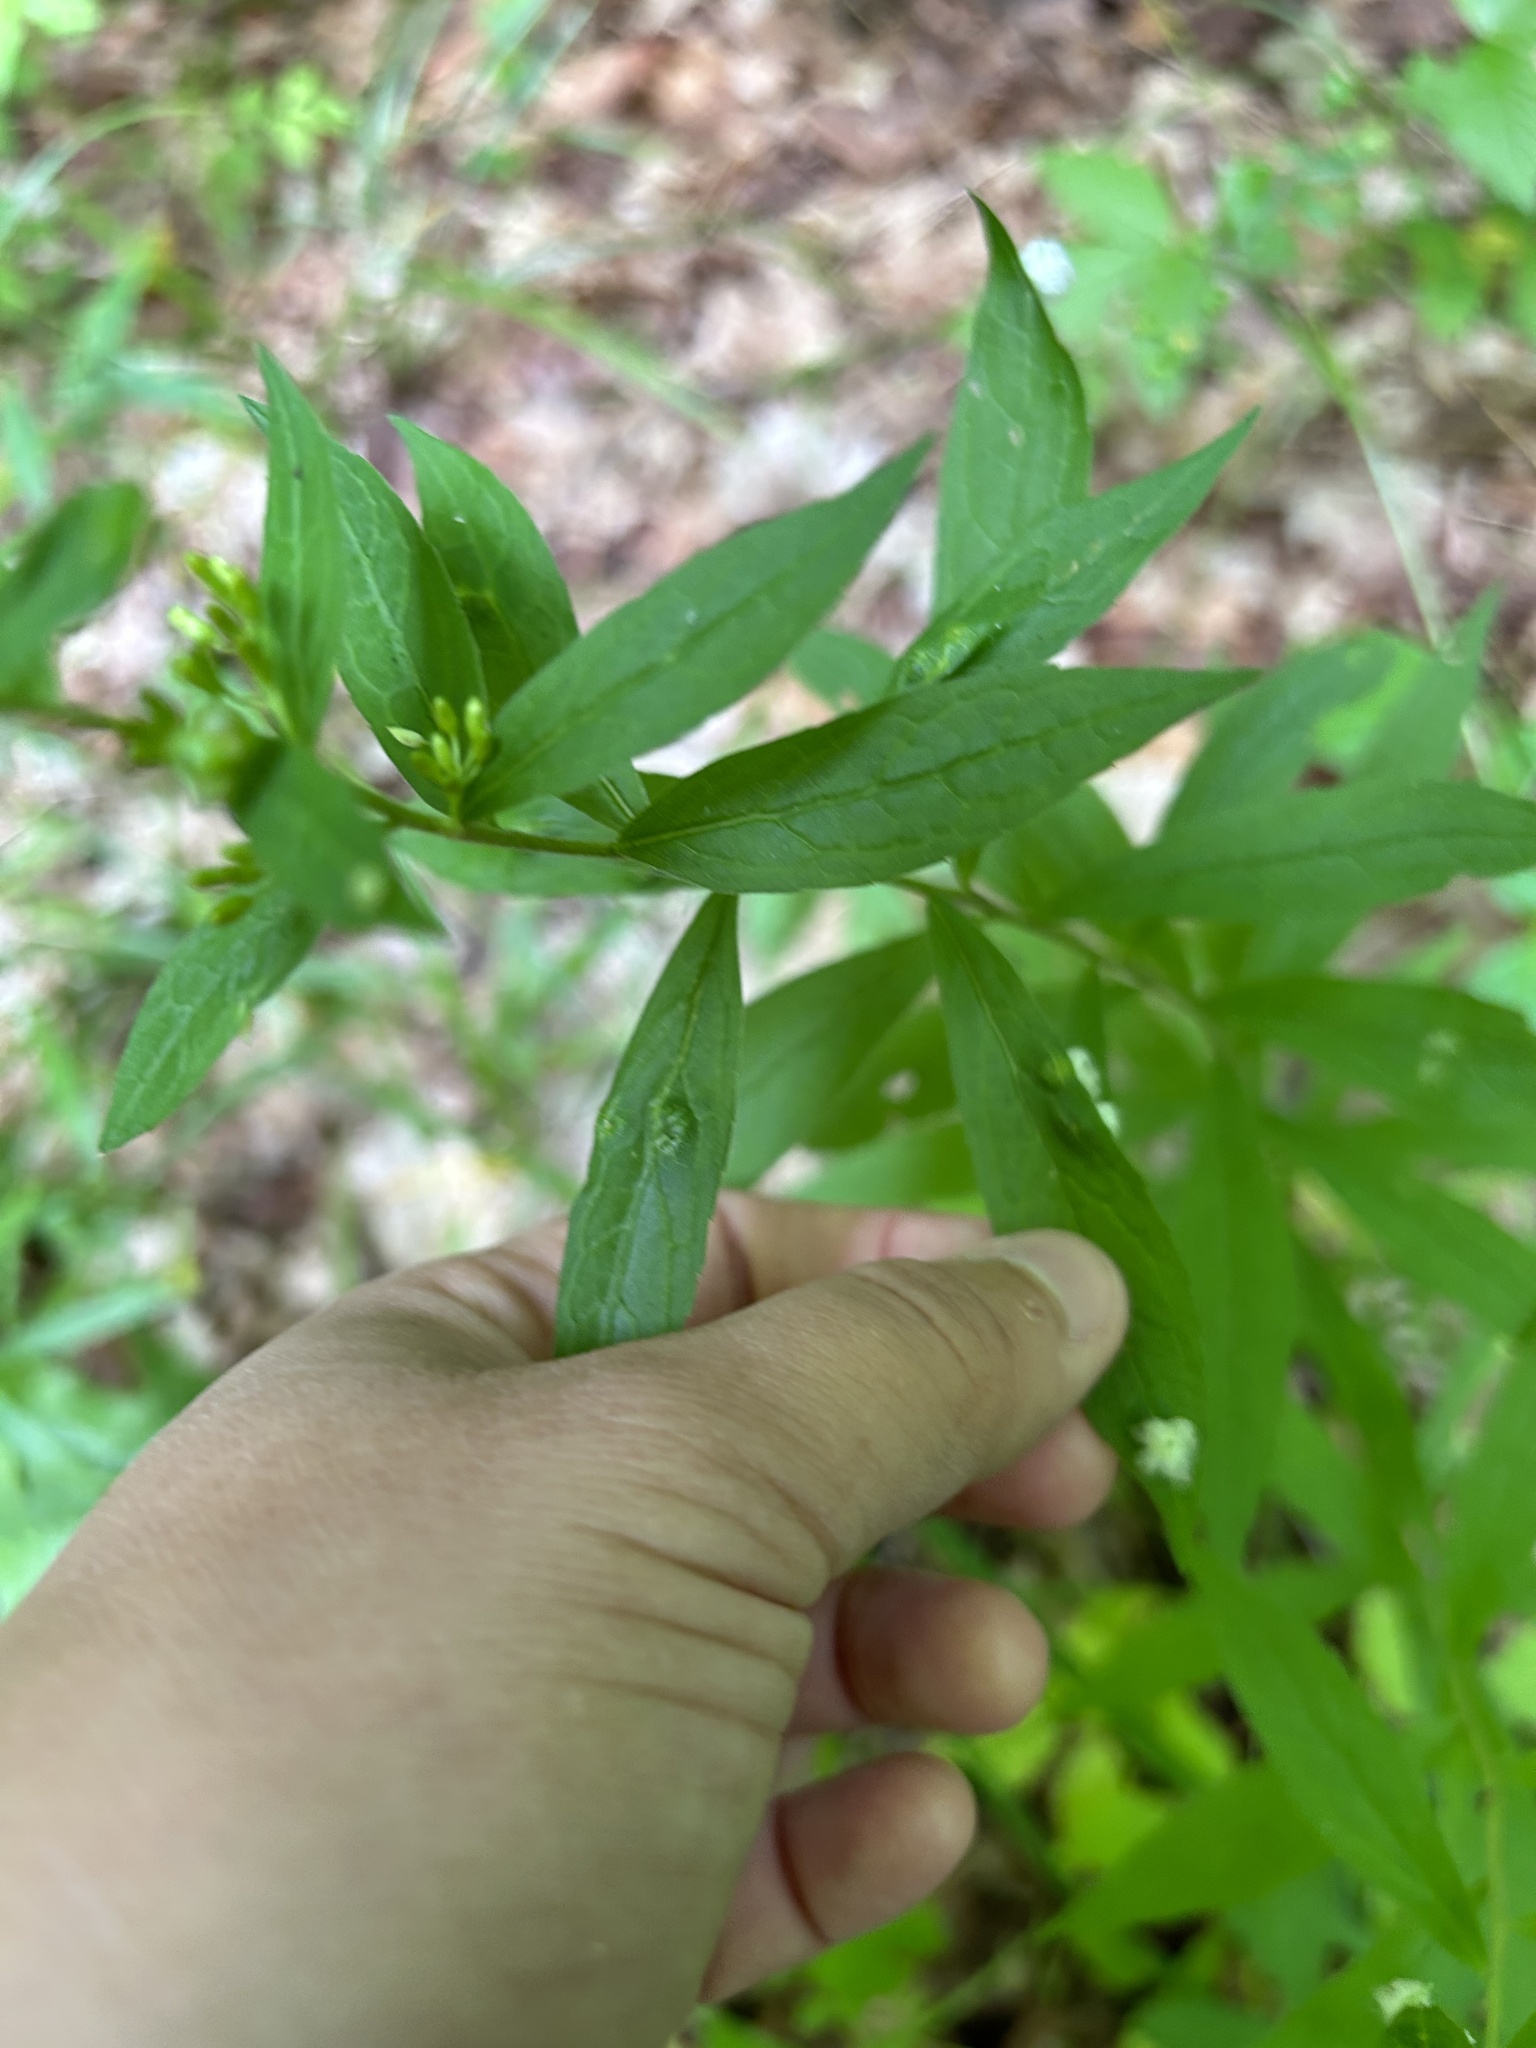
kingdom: Animalia
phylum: Arthropoda
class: Insecta
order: Diptera
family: Cecidomyiidae
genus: Rhopalomyia
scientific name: Rhopalomyia clarkei
